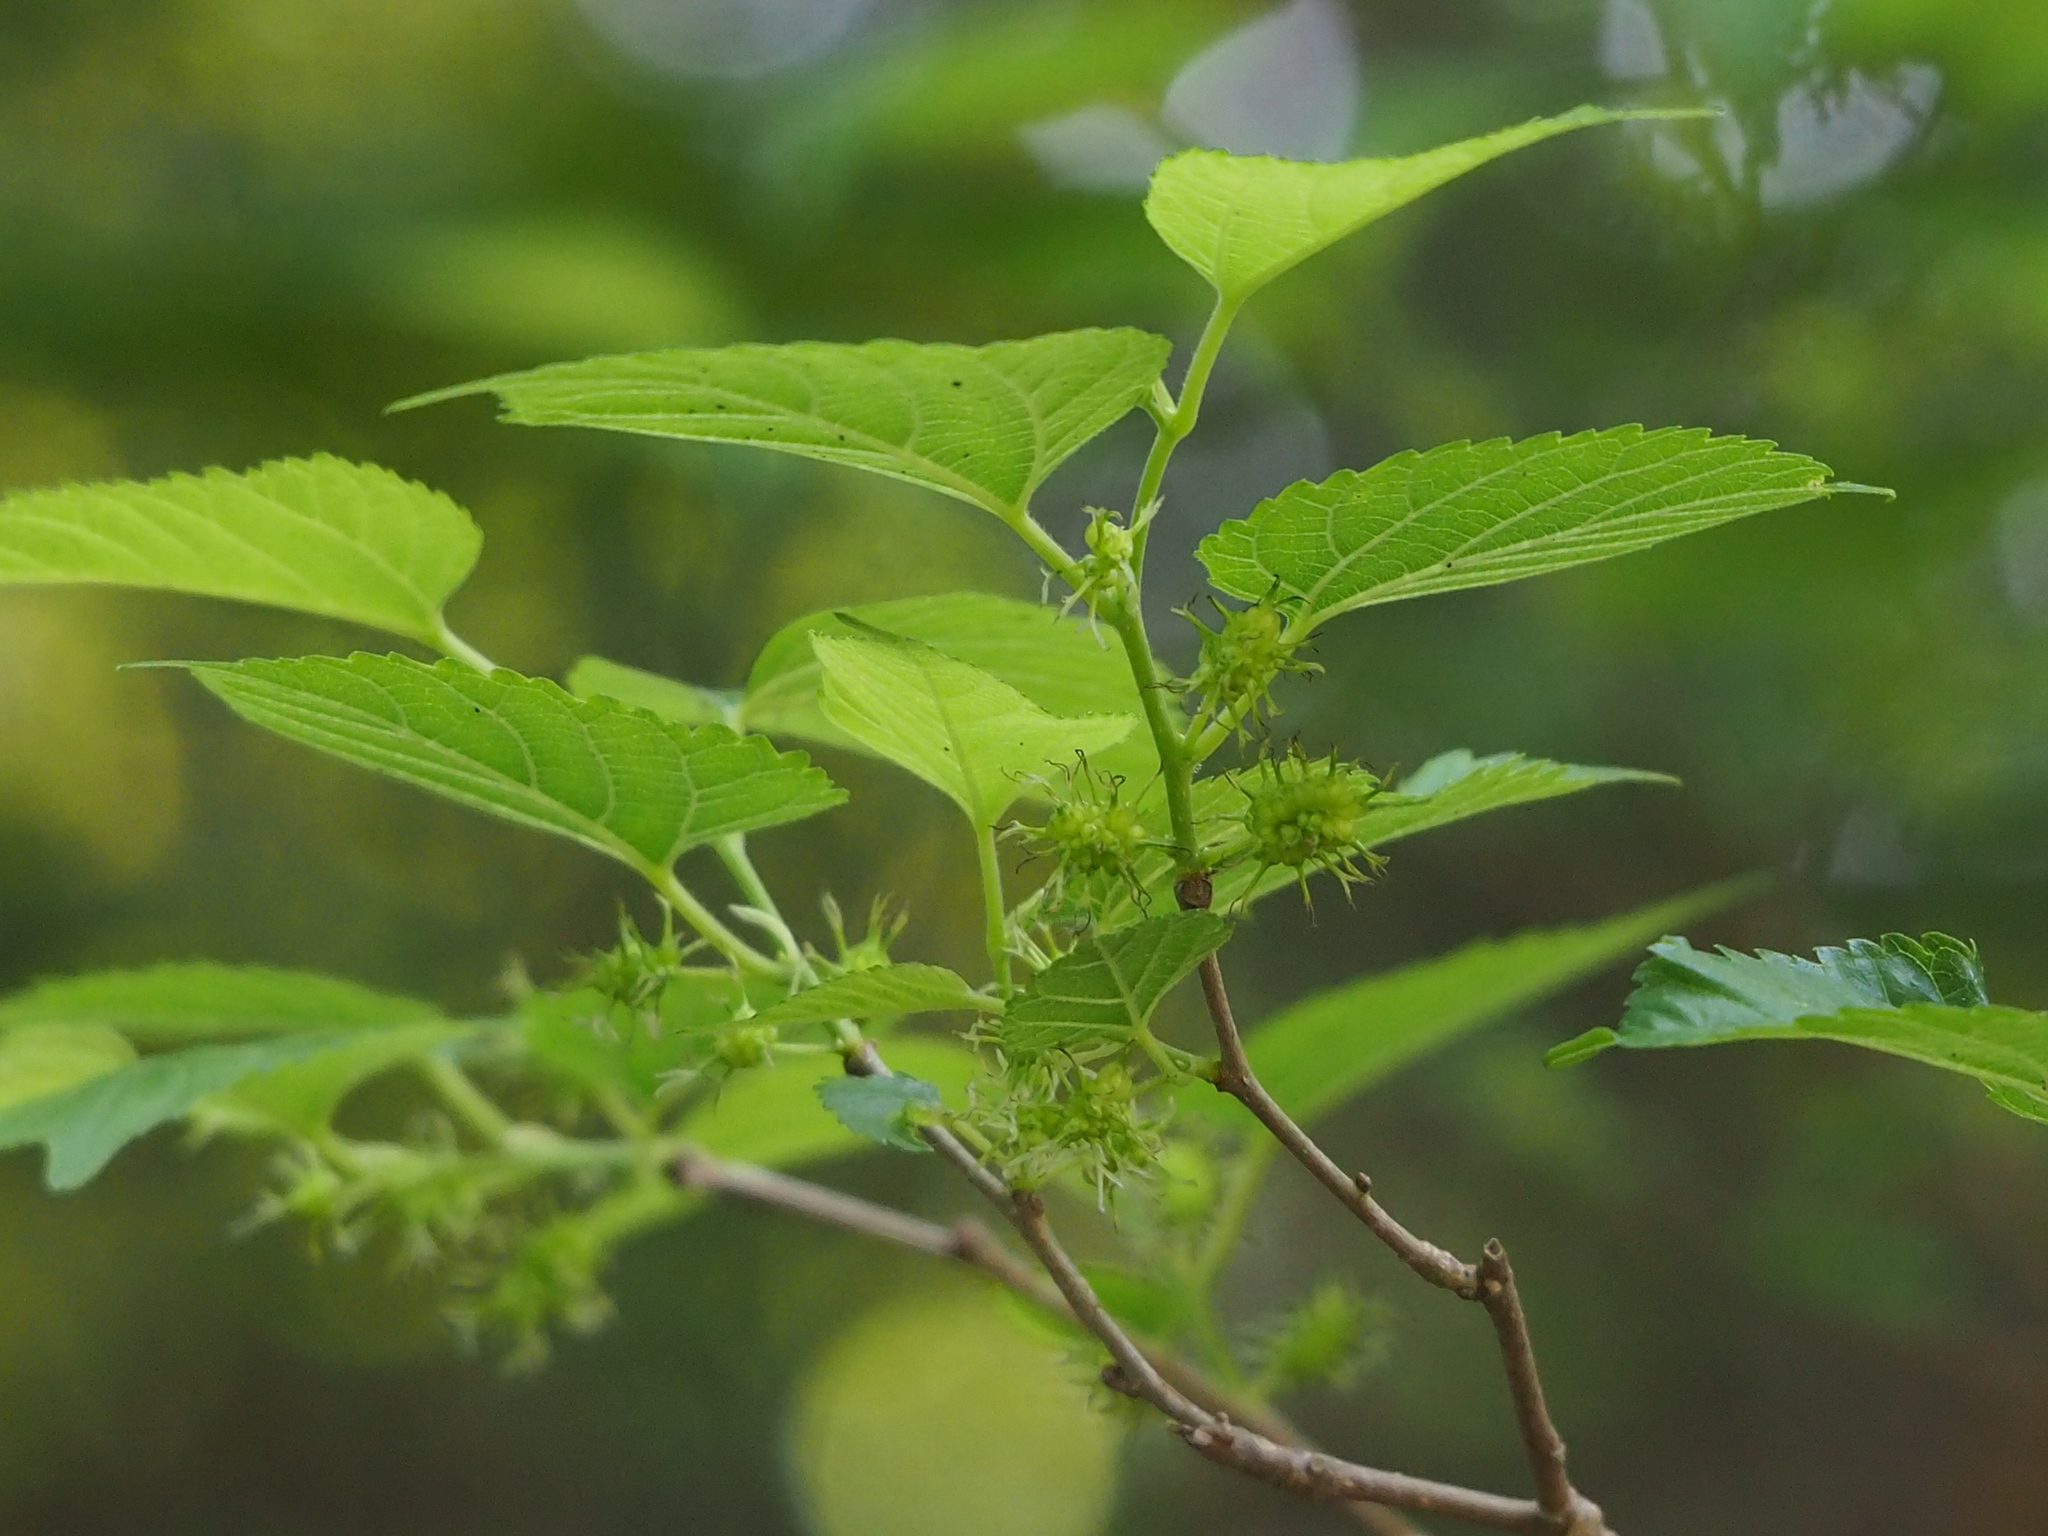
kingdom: Plantae
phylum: Tracheophyta
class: Magnoliopsida
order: Rosales
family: Moraceae
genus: Morus
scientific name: Morus indica
